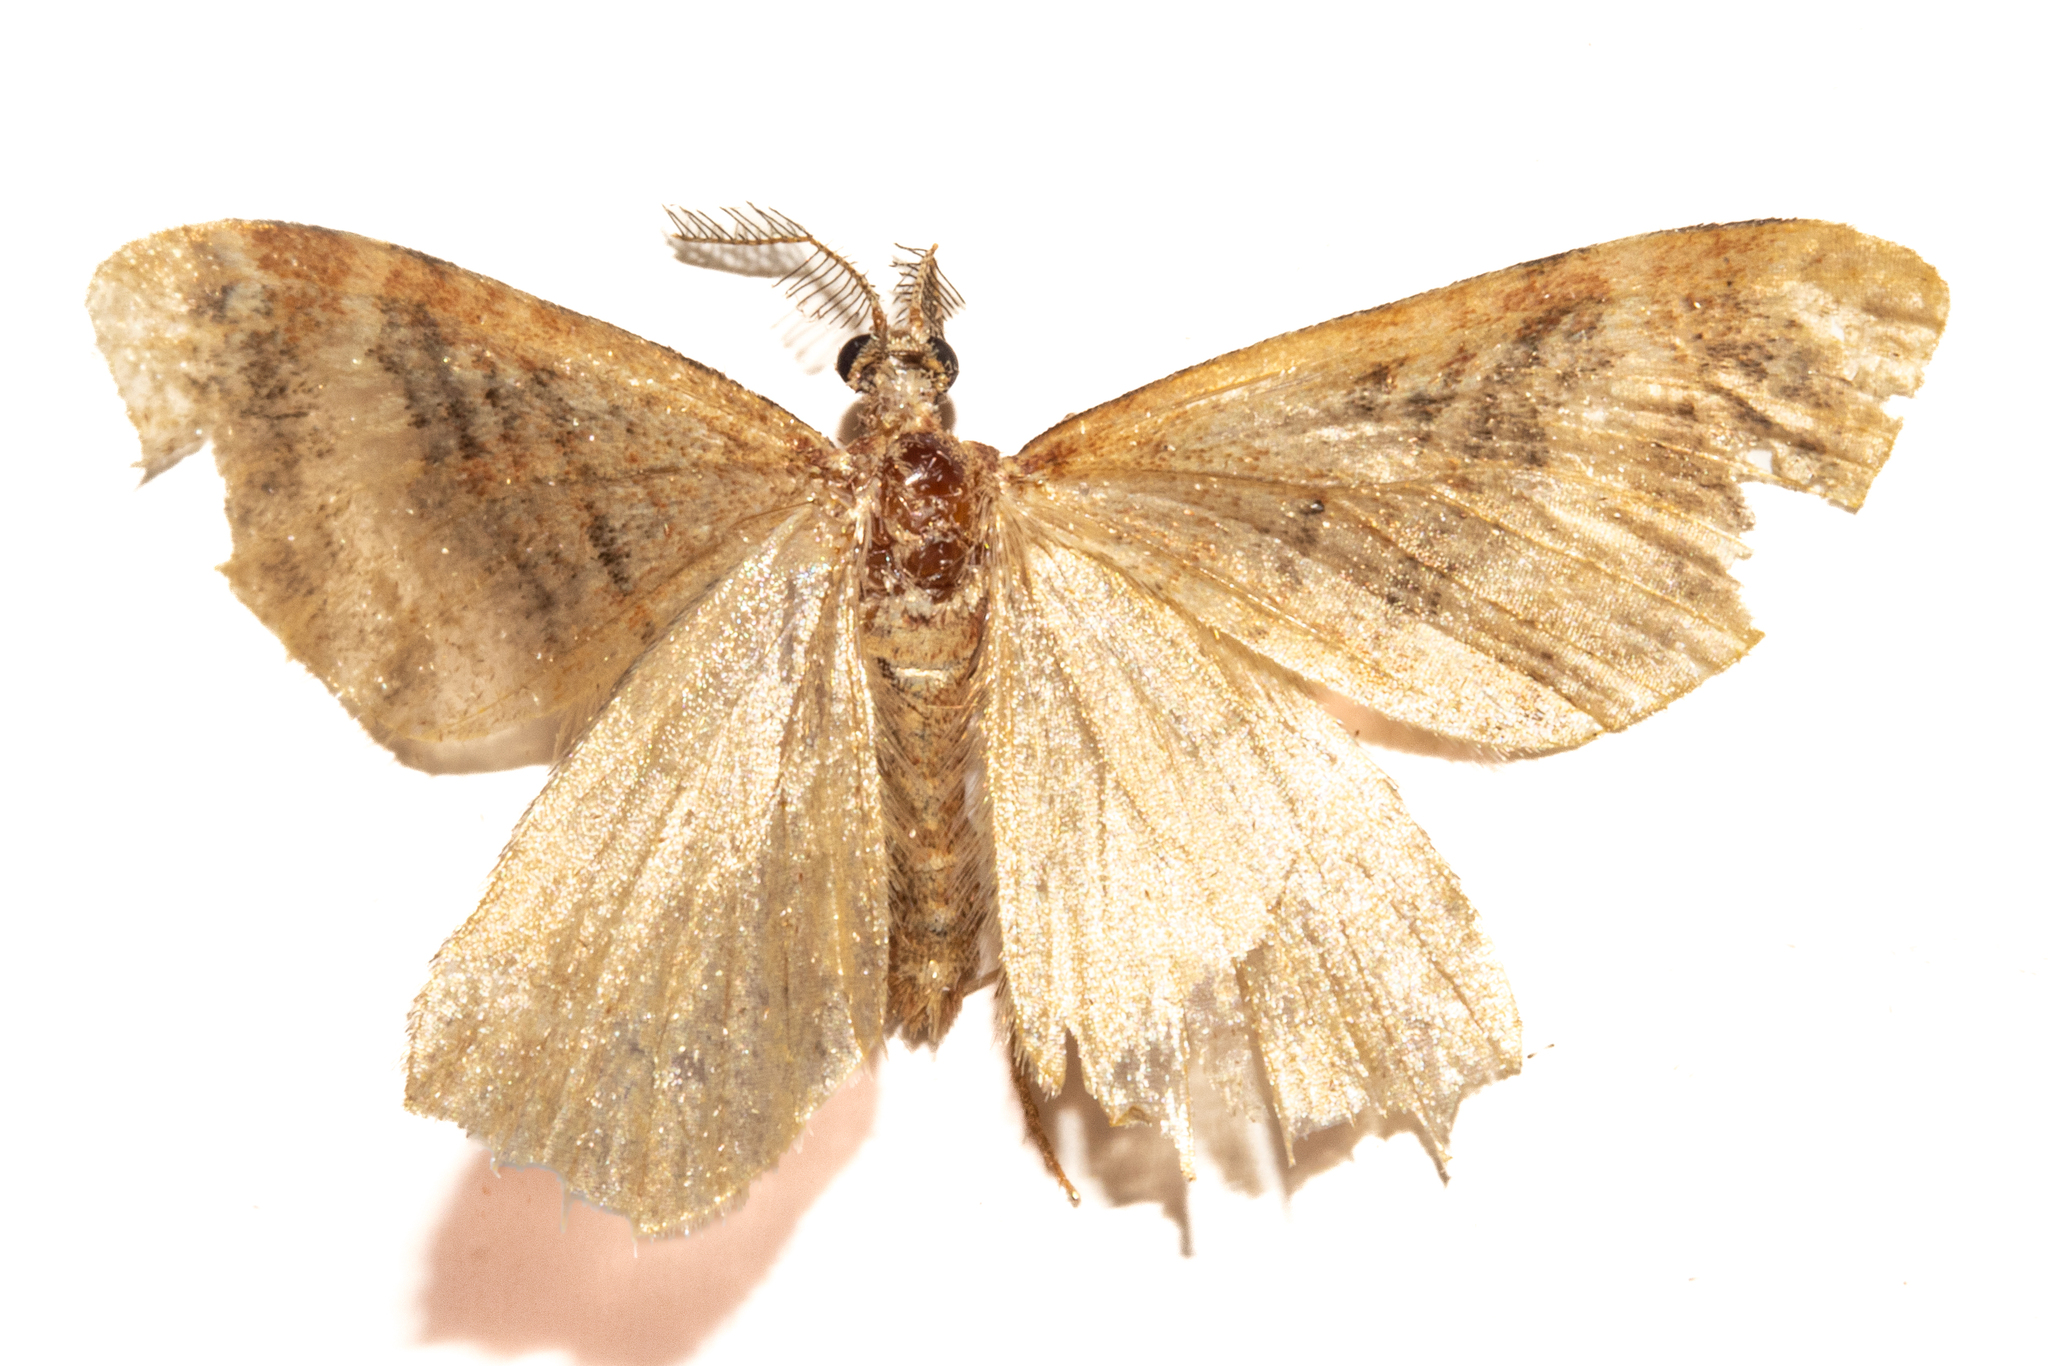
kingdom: Animalia
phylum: Arthropoda
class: Insecta
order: Lepidoptera
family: Geometridae
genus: Asaphodes
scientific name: Asaphodes recta
